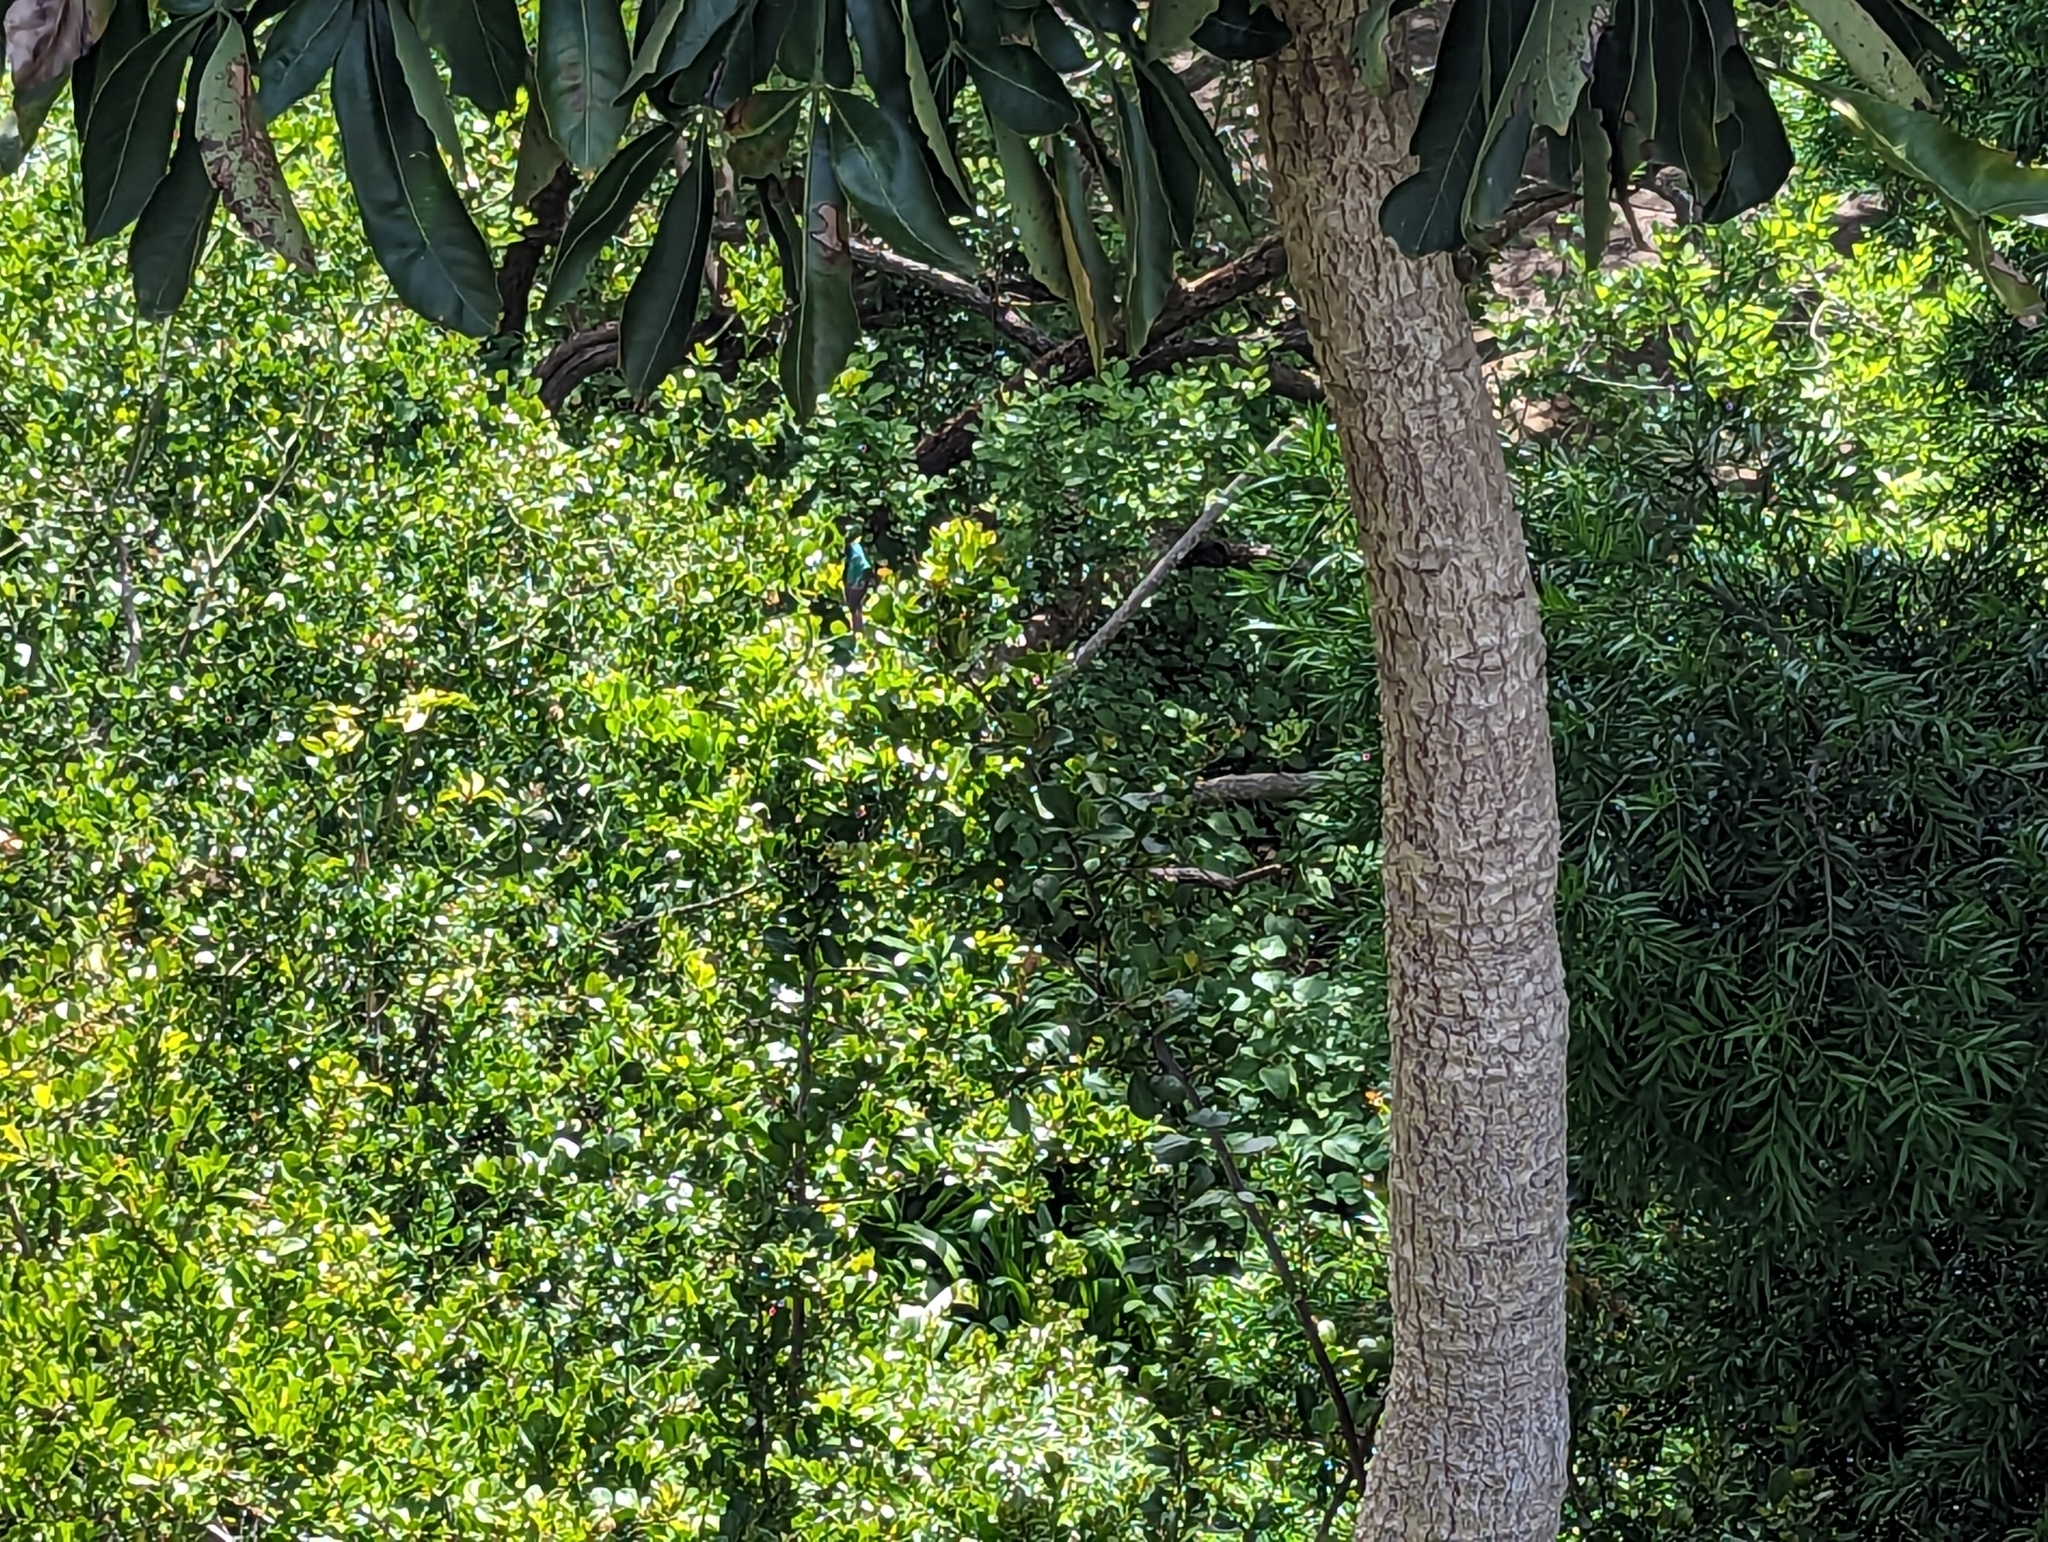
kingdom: Animalia
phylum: Chordata
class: Aves
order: Passeriformes
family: Nectariniidae
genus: Cinnyris
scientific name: Cinnyris chalybeus
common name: Southern double-collared sunbird
